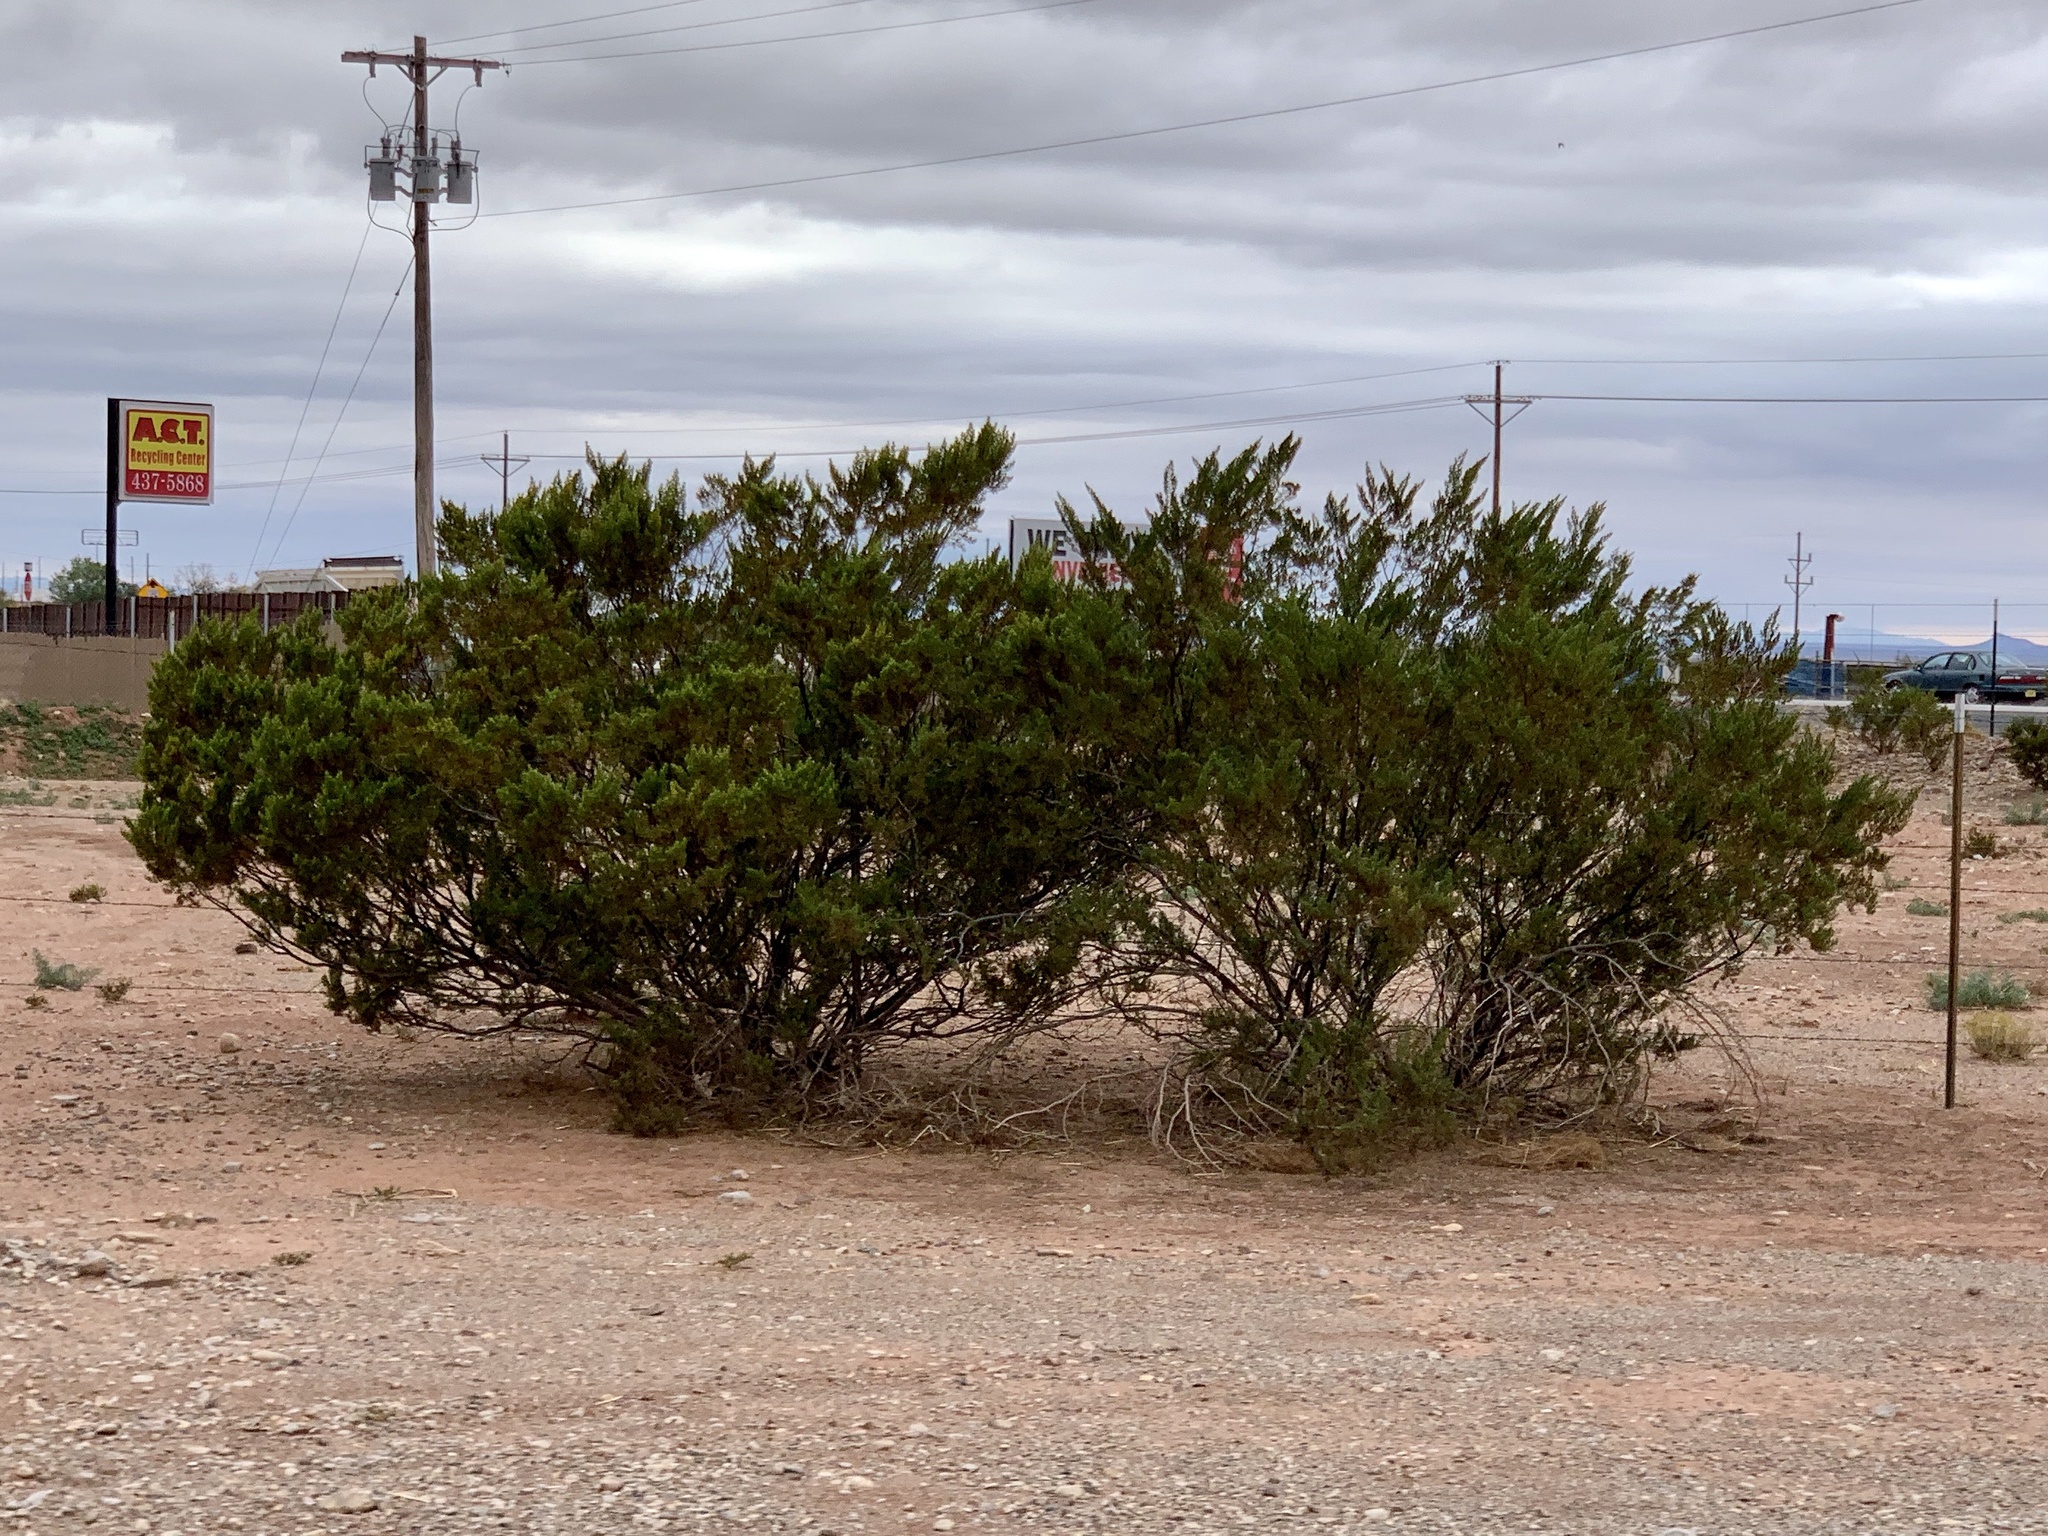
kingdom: Plantae
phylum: Tracheophyta
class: Magnoliopsida
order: Zygophyllales
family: Zygophyllaceae
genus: Larrea
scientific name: Larrea tridentata
